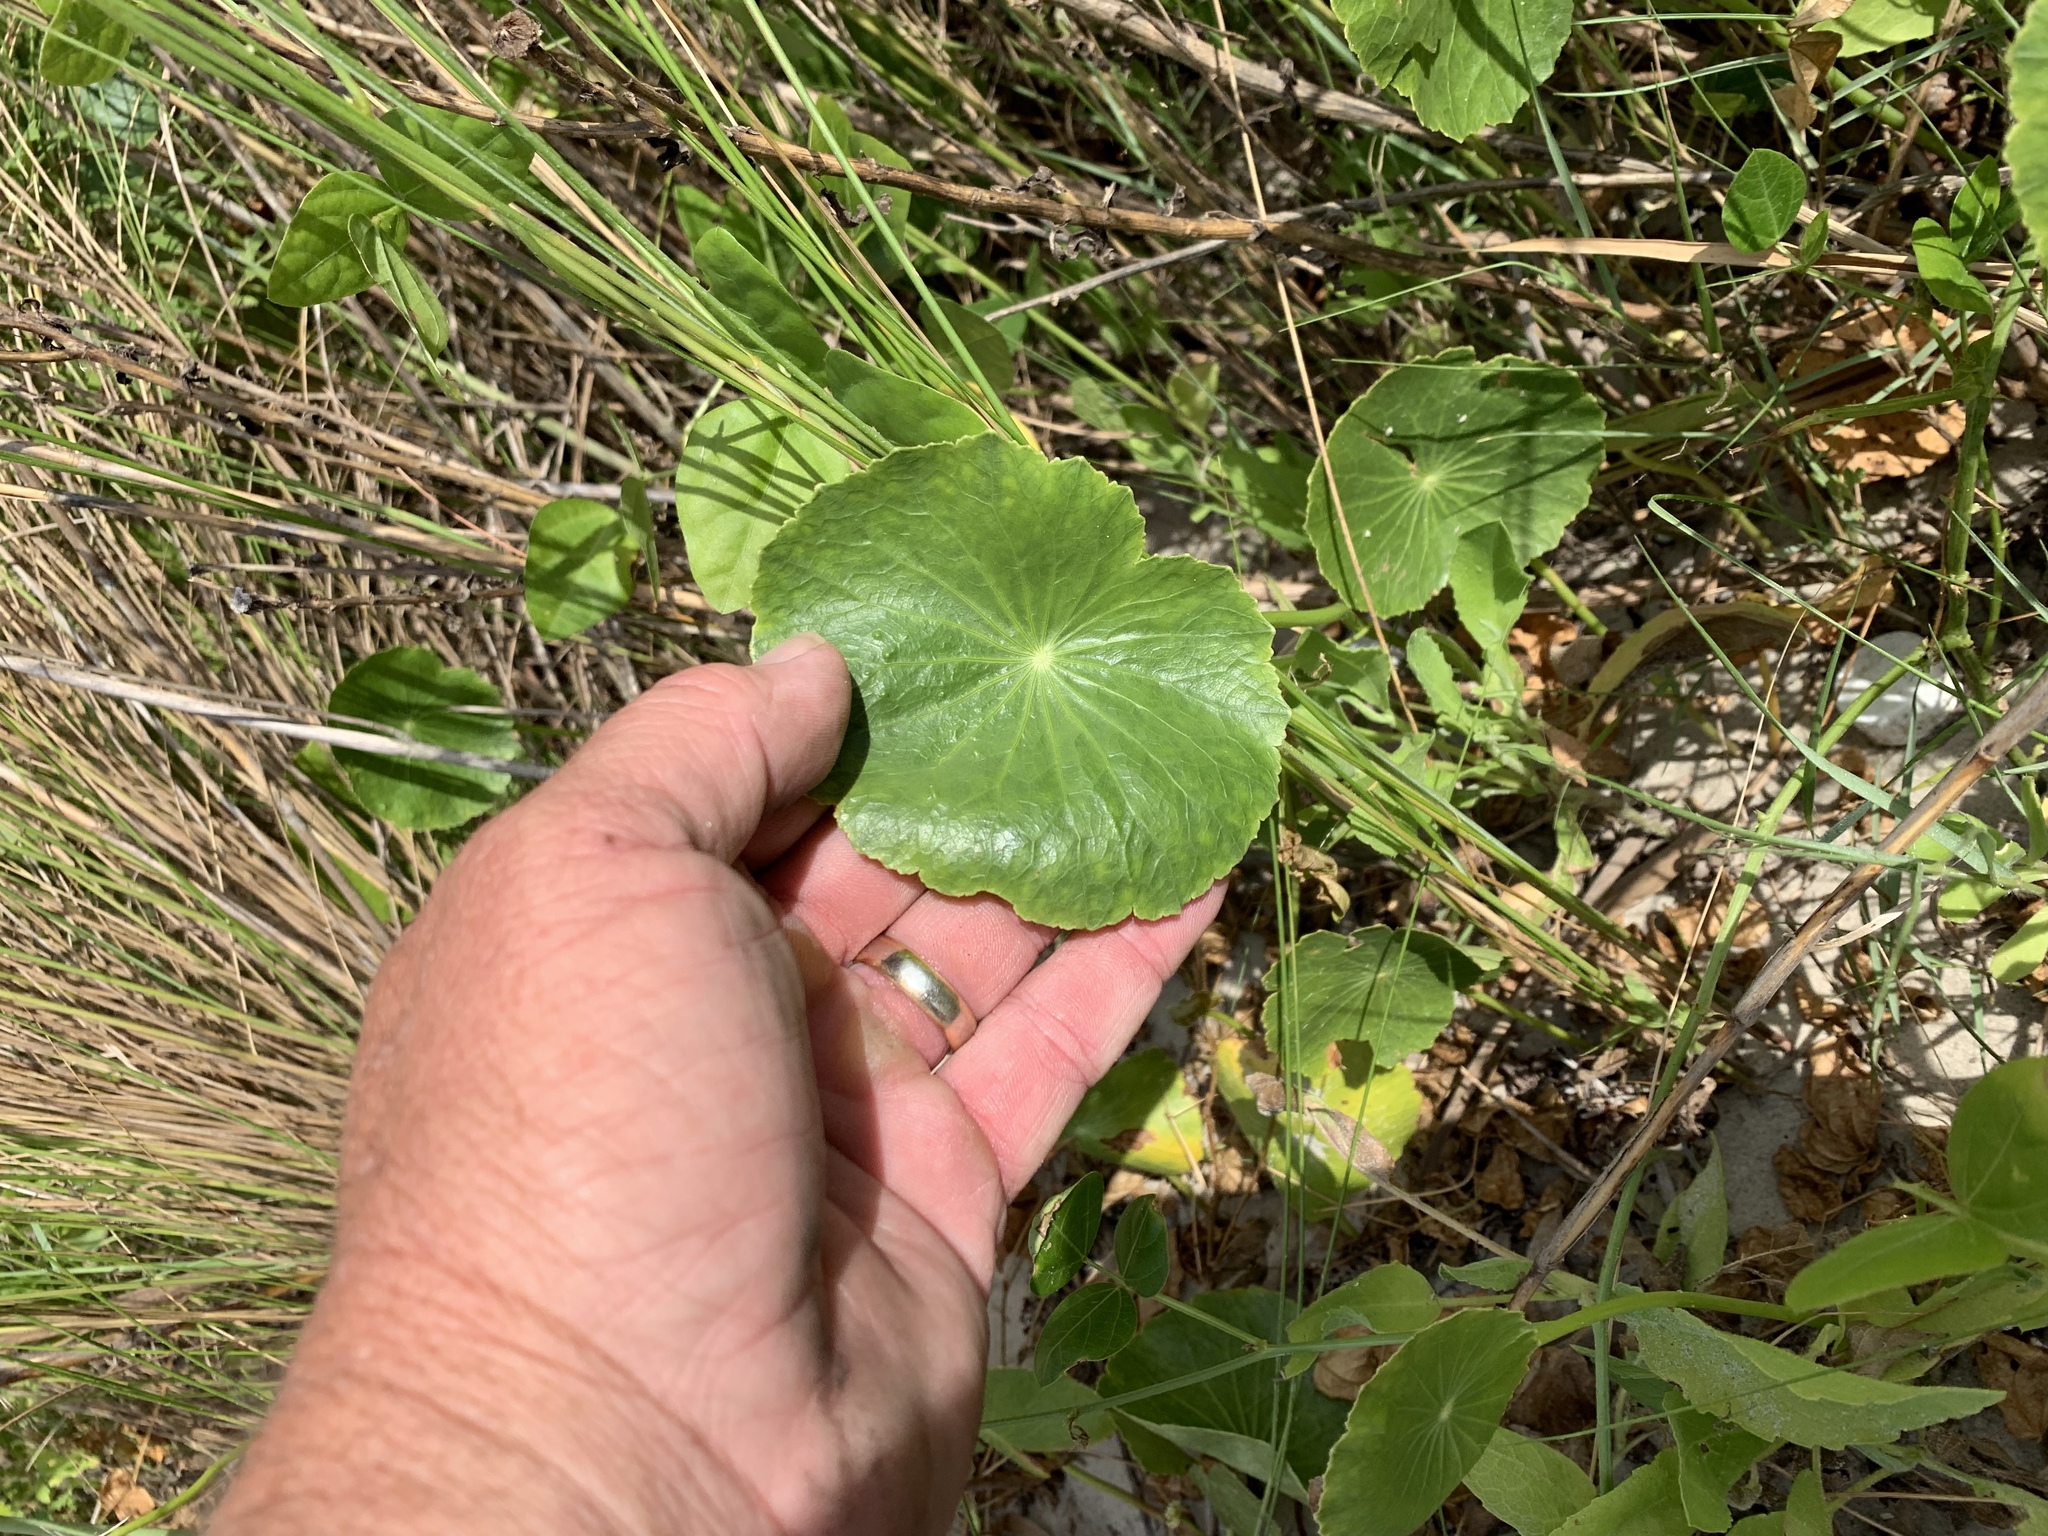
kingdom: Plantae
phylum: Tracheophyta
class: Magnoliopsida
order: Apiales
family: Araliaceae
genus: Hydrocotyle
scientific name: Hydrocotyle bonariensis
